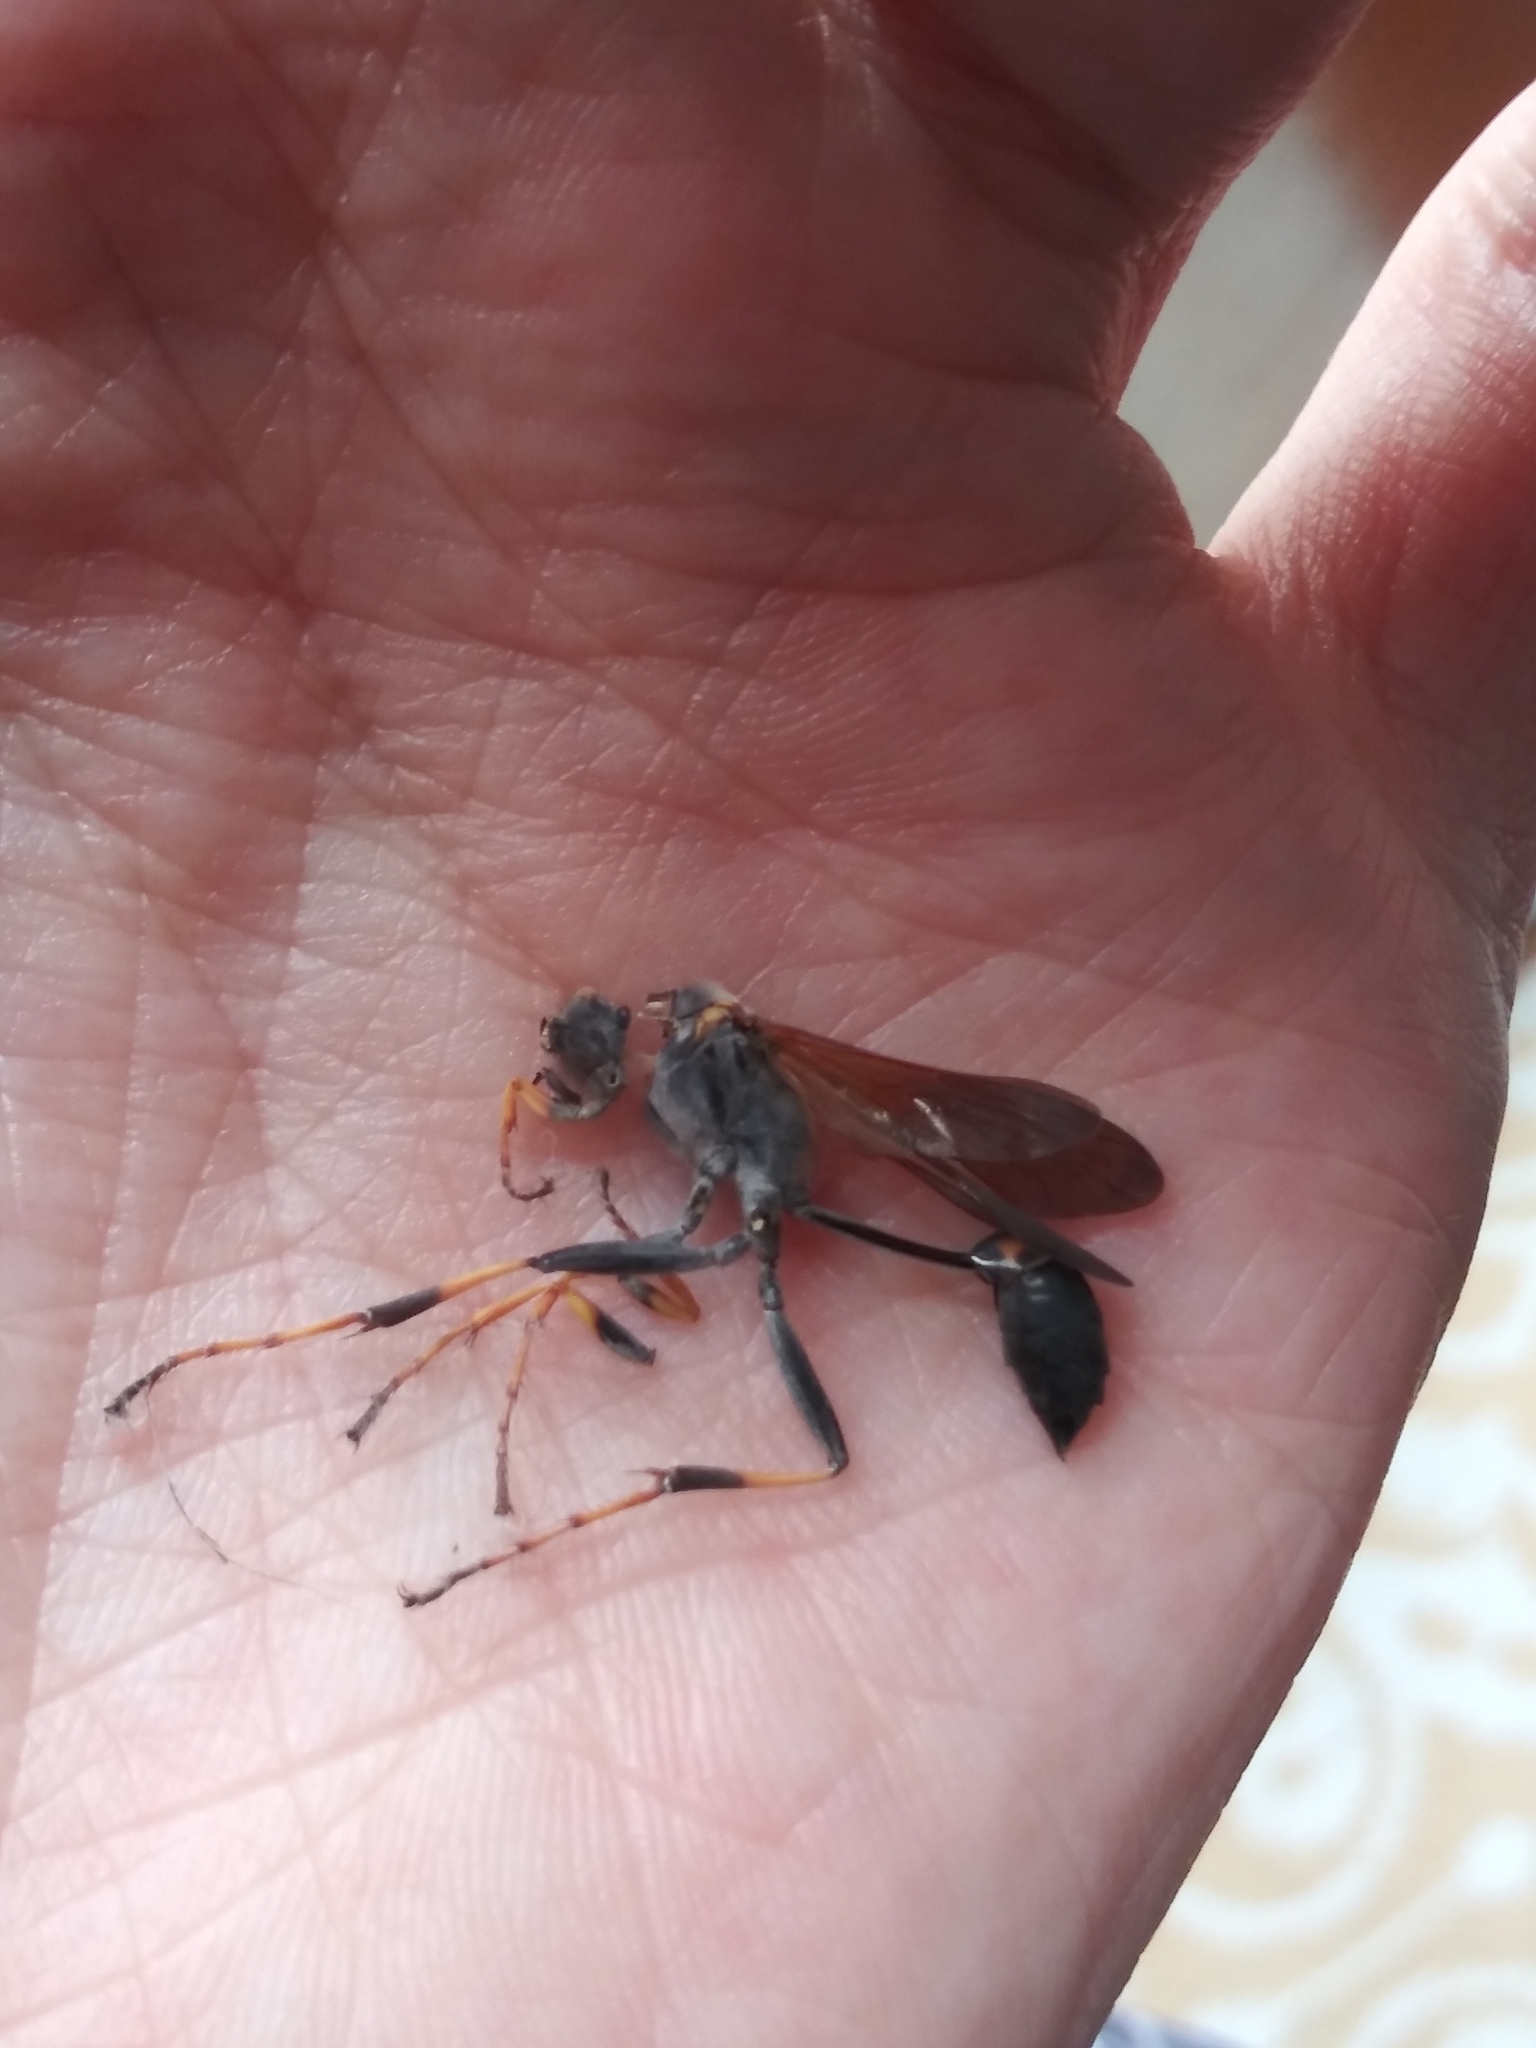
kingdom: Animalia
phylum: Arthropoda
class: Insecta
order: Hymenoptera
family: Sphecidae
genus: Sceliphron
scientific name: Sceliphron caementarium
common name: Mud dauber
